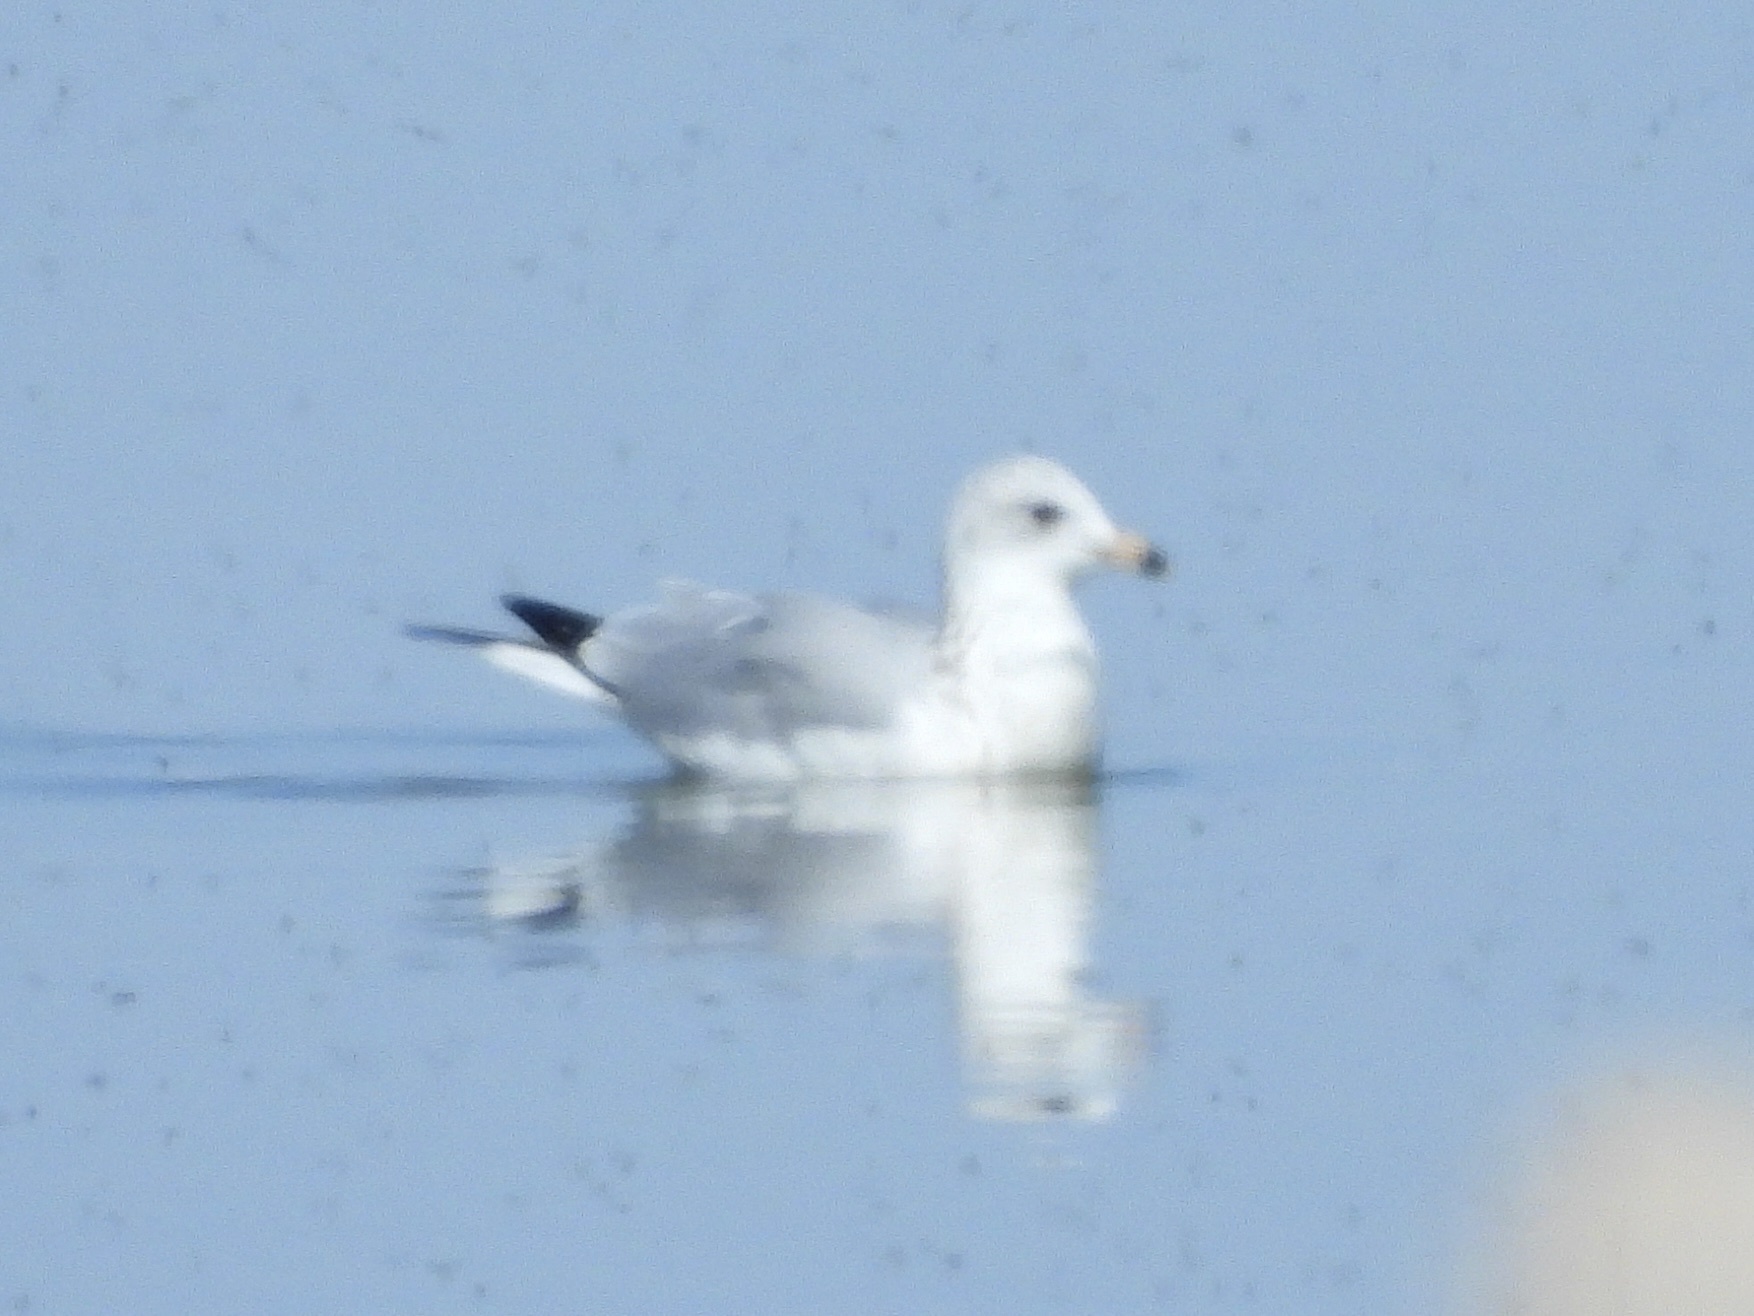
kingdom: Animalia
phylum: Chordata
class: Aves
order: Charadriiformes
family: Laridae
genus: Larus
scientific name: Larus delawarensis
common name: Ring-billed gull
